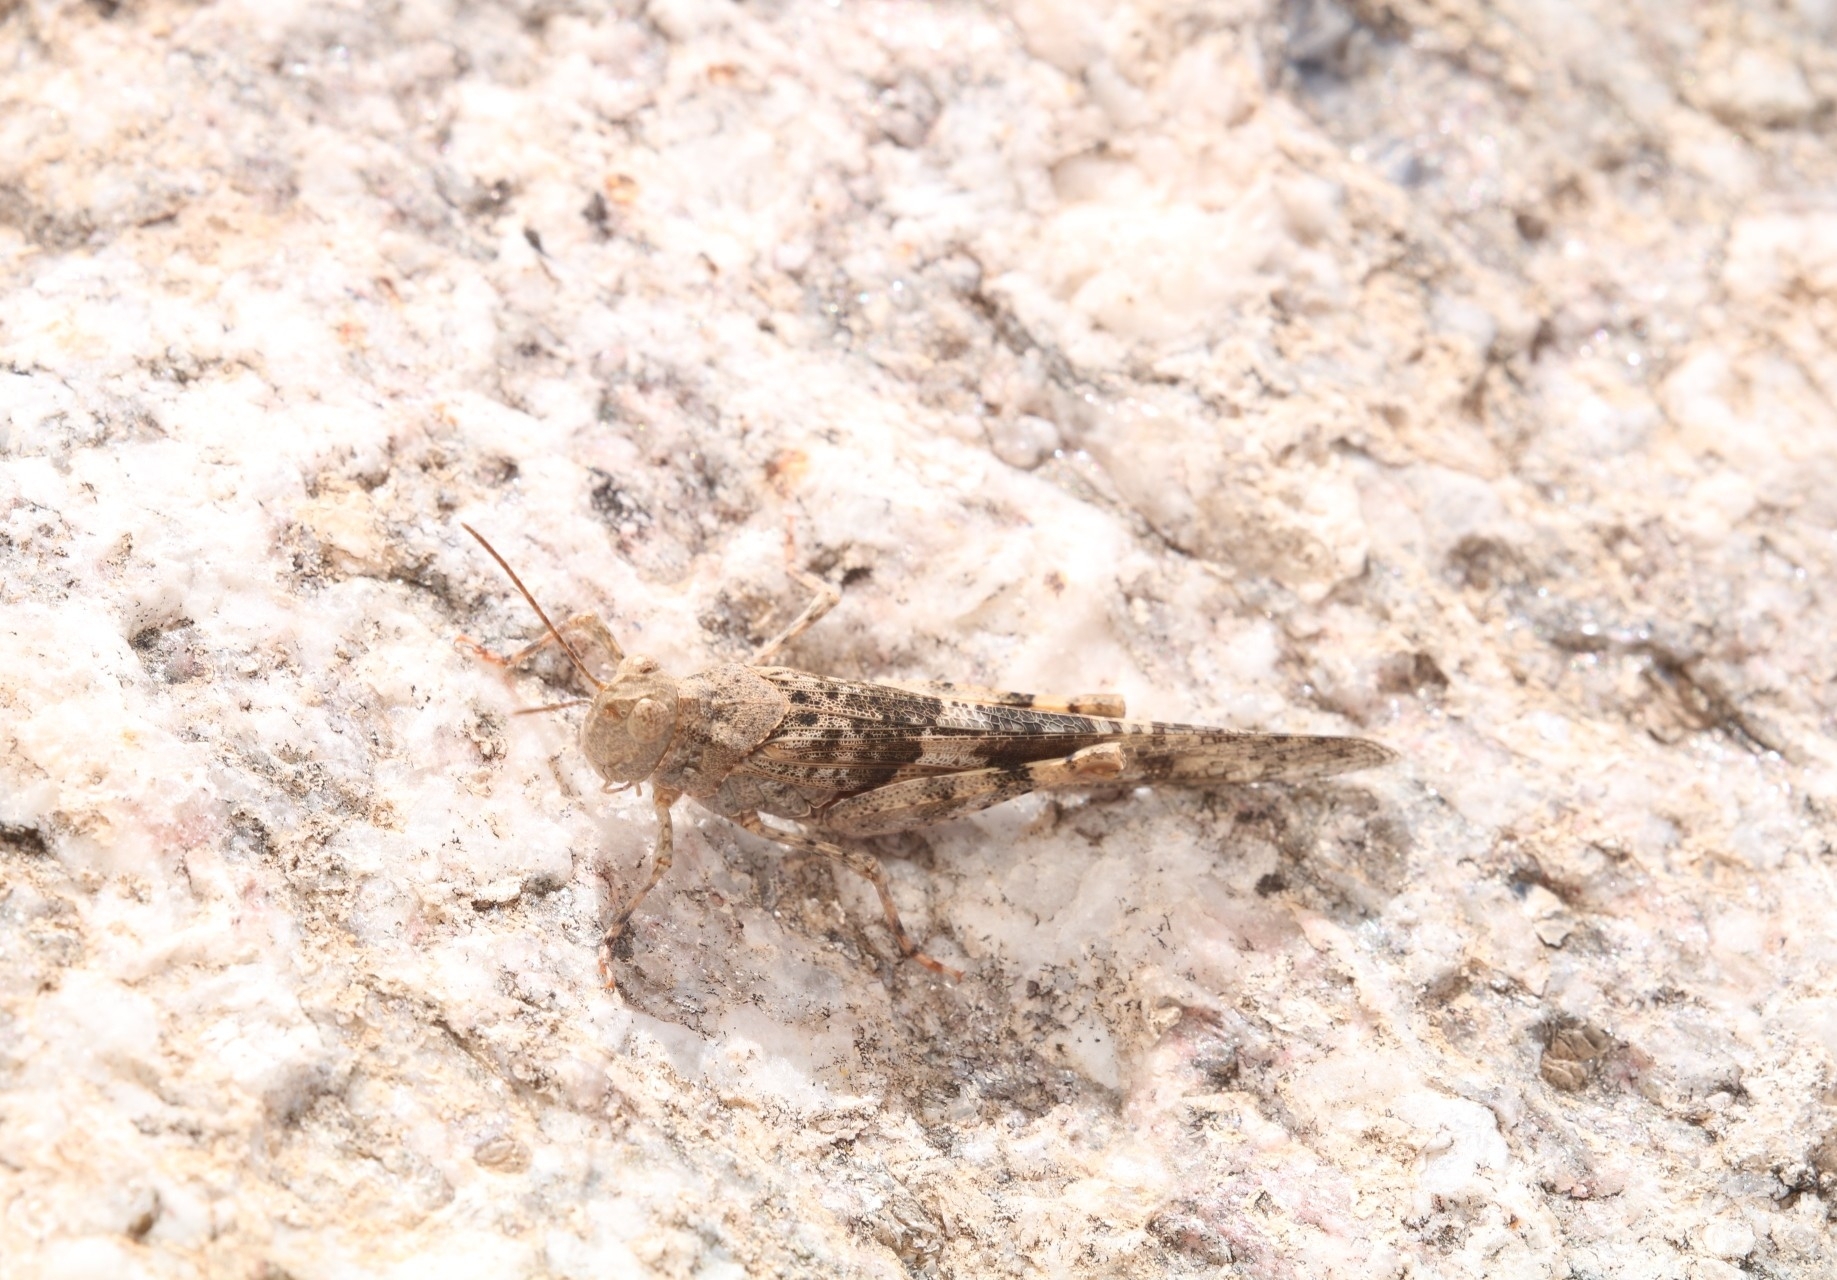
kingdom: Animalia
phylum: Arthropoda
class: Insecta
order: Orthoptera
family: Acrididae
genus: Trimerotropis
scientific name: Trimerotropis pallidipennis
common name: Pallid-winged grasshopper
